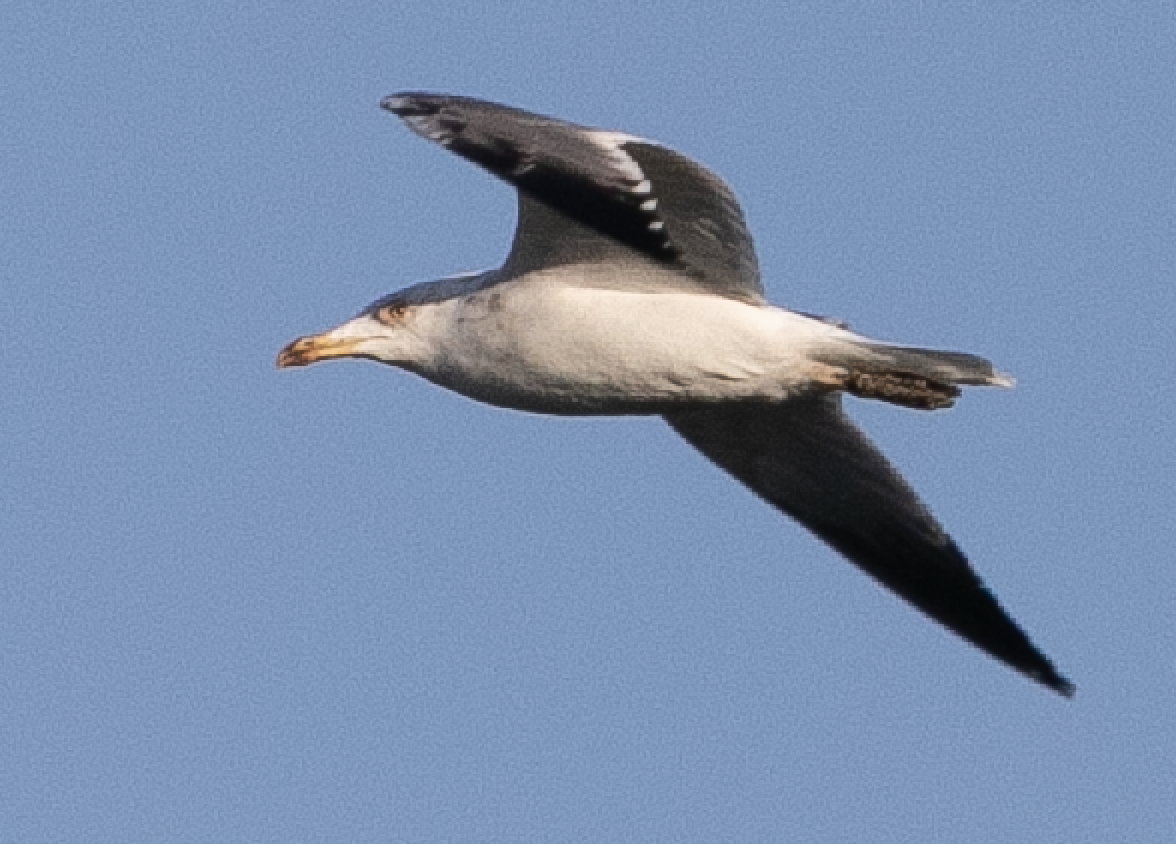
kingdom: Animalia
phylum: Chordata
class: Aves
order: Charadriiformes
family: Laridae
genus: Larus
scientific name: Larus michahellis
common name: Yellow-legged gull
